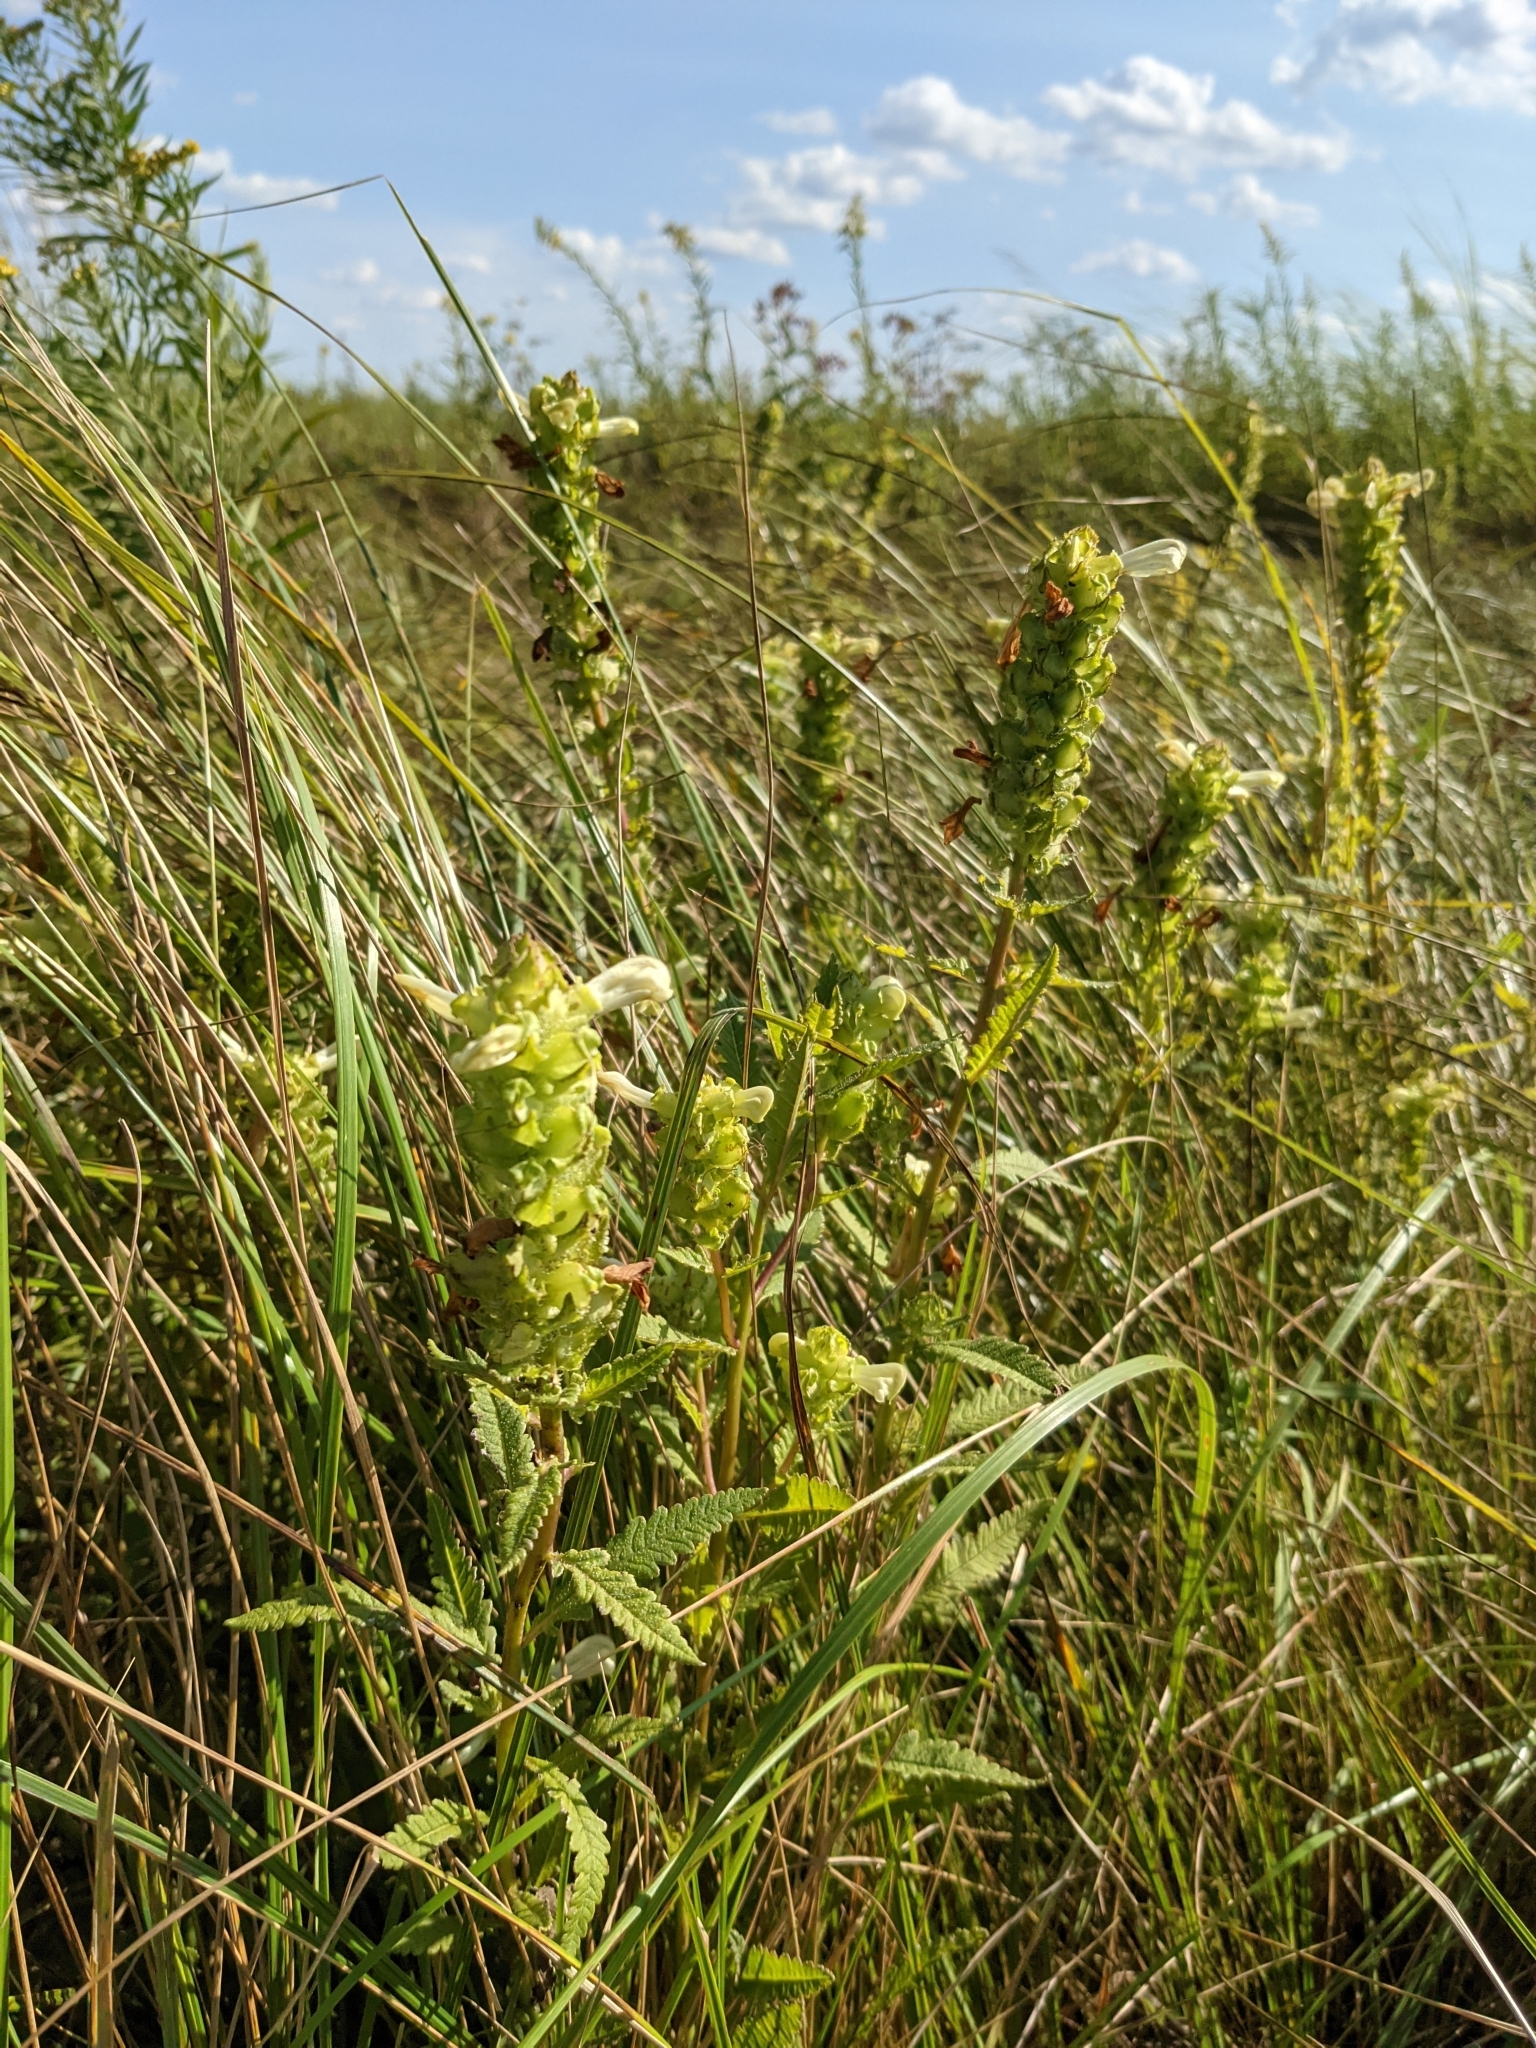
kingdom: Plantae
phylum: Tracheophyta
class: Magnoliopsida
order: Lamiales
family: Orobanchaceae
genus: Pedicularis
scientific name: Pedicularis lanceolata
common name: Swamp lousewort
